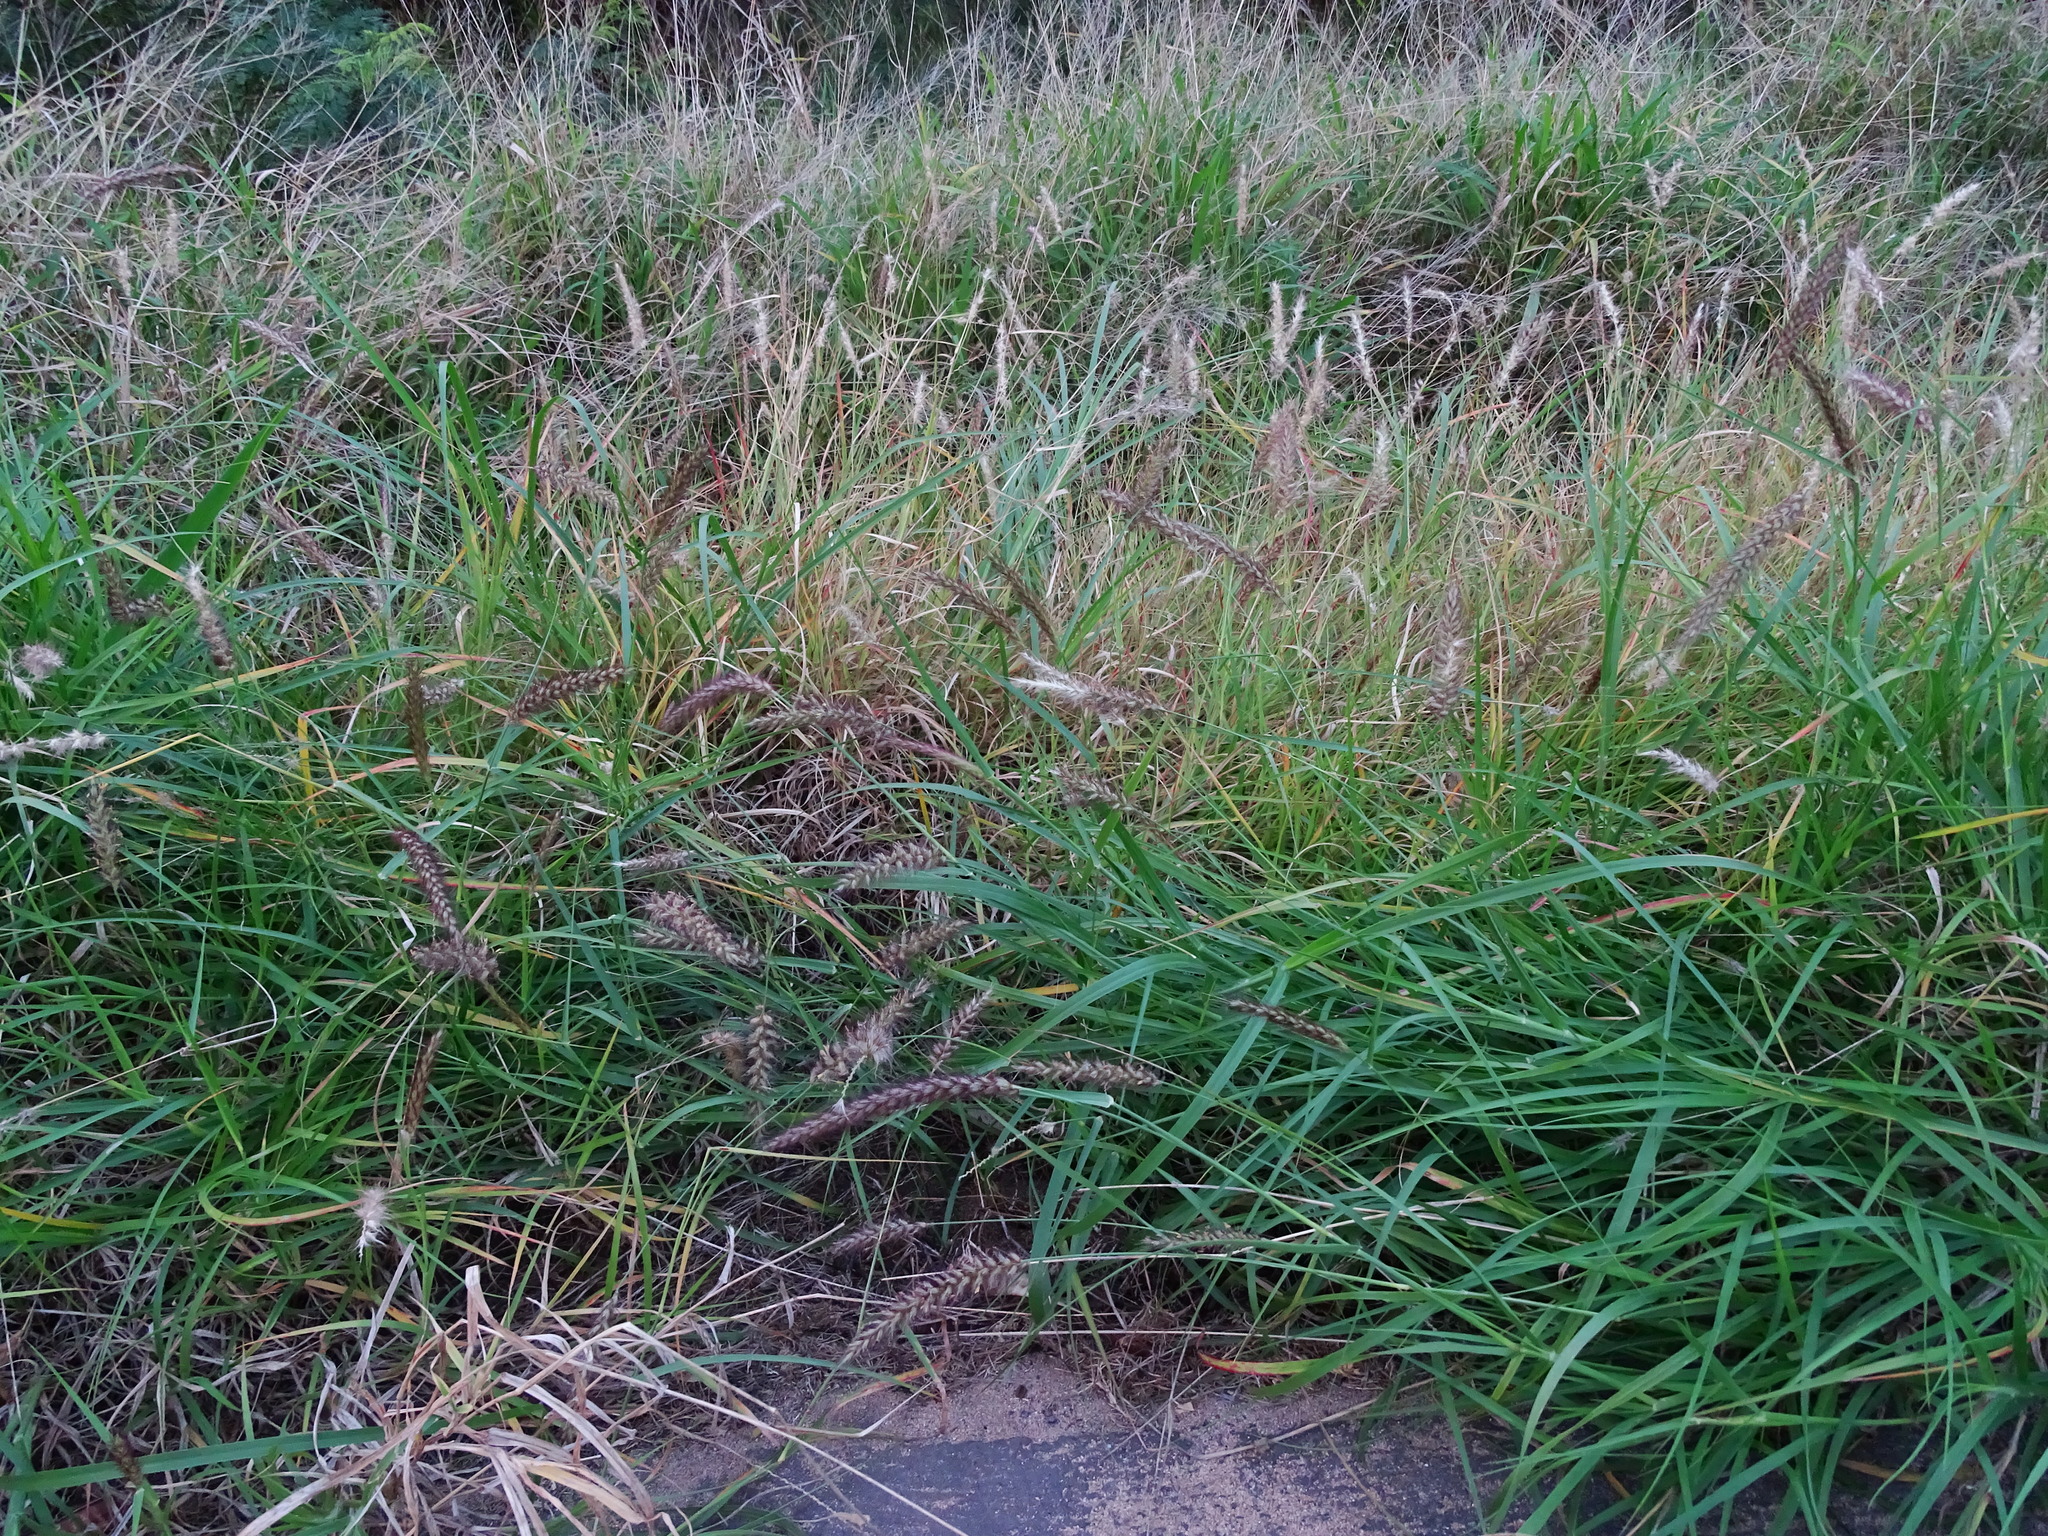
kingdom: Plantae
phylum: Tracheophyta
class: Liliopsida
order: Poales
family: Poaceae
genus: Cenchrus
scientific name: Cenchrus ciliaris
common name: Buffelgrass
